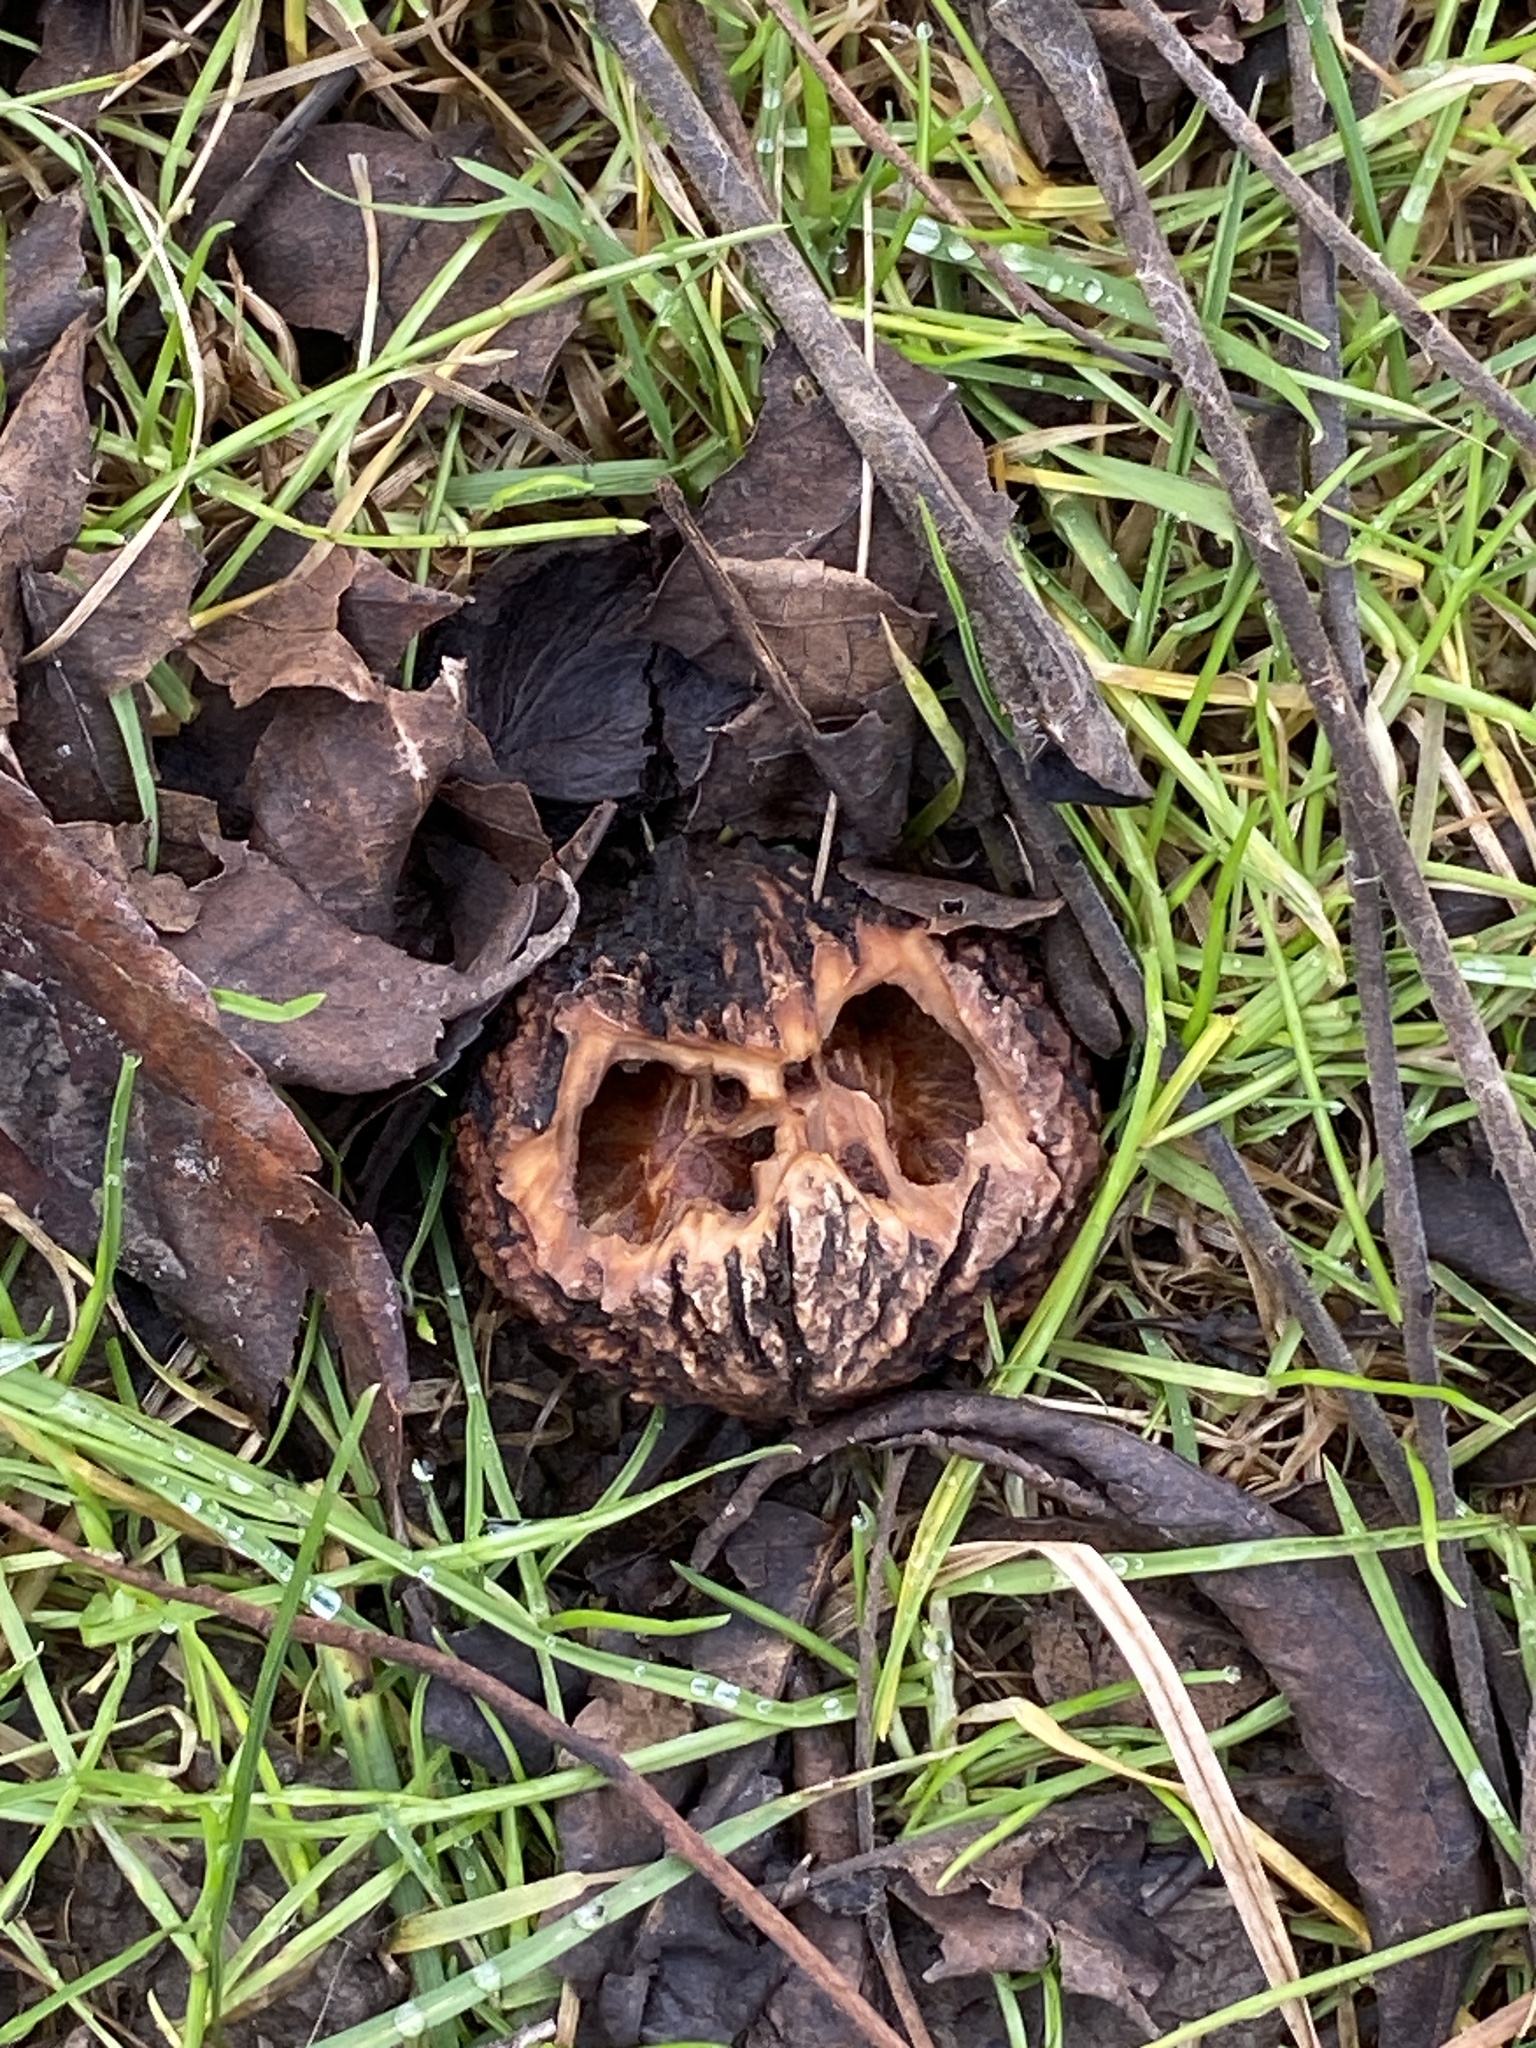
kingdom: Plantae
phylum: Tracheophyta
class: Magnoliopsida
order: Fagales
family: Juglandaceae
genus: Juglans
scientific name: Juglans nigra
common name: Black walnut
